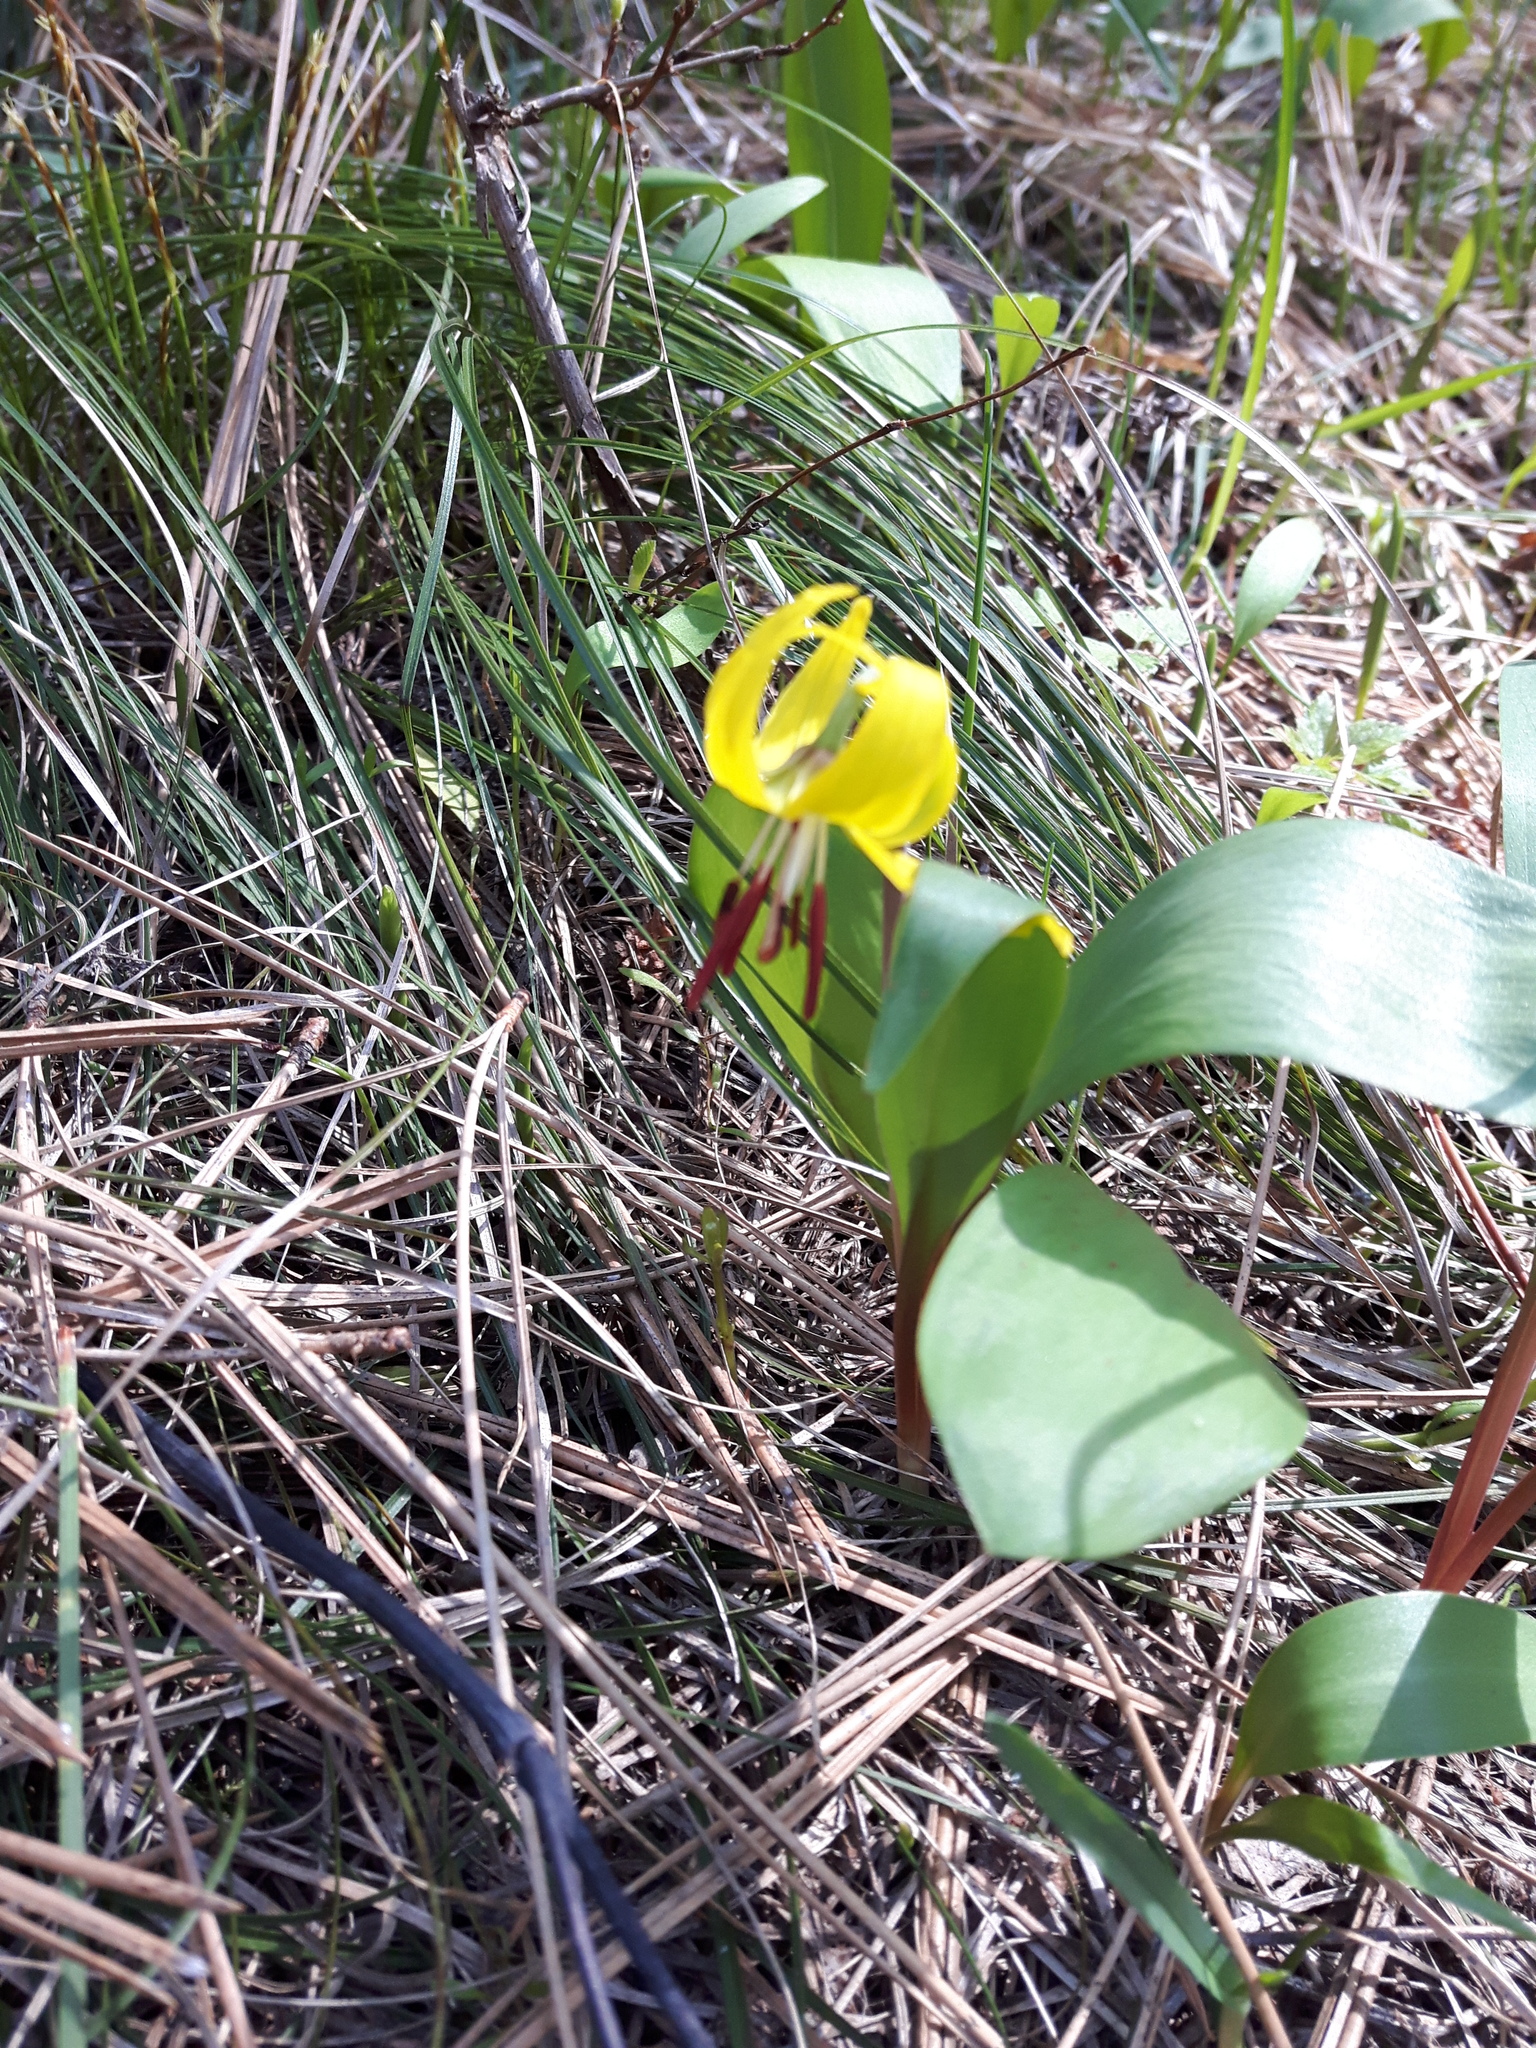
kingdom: Plantae
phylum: Tracheophyta
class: Liliopsida
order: Liliales
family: Liliaceae
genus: Erythronium
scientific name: Erythronium grandiflorum
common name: Avalanche-lily
